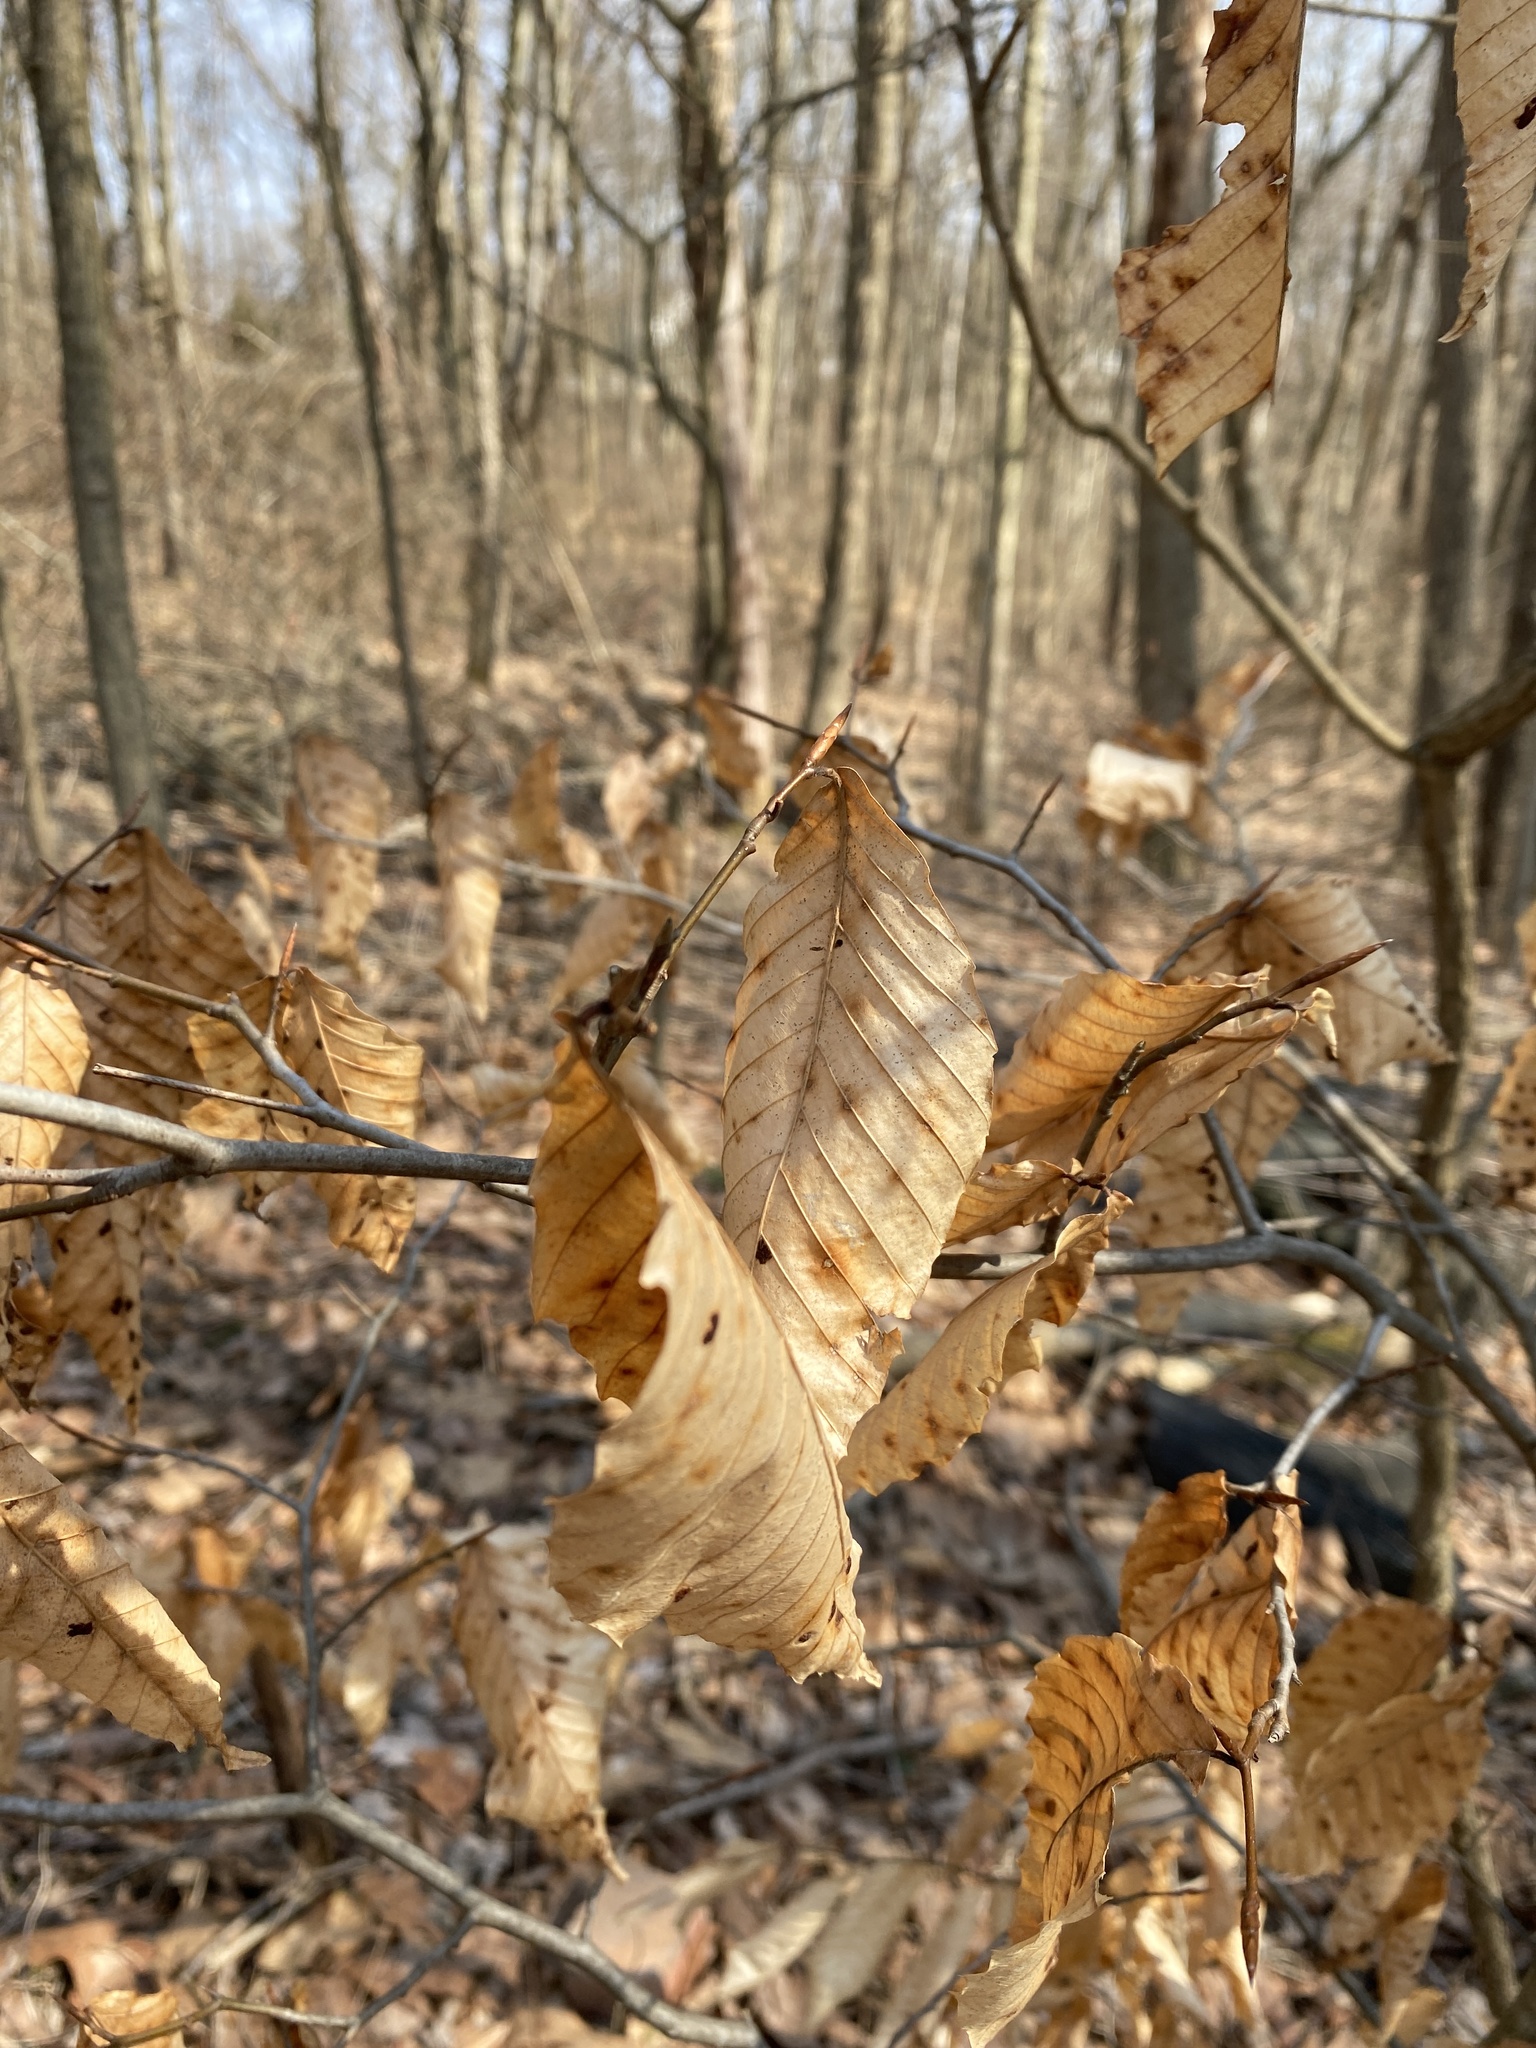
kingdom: Plantae
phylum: Tracheophyta
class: Magnoliopsida
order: Fagales
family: Fagaceae
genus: Fagus
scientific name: Fagus grandifolia
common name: American beech
